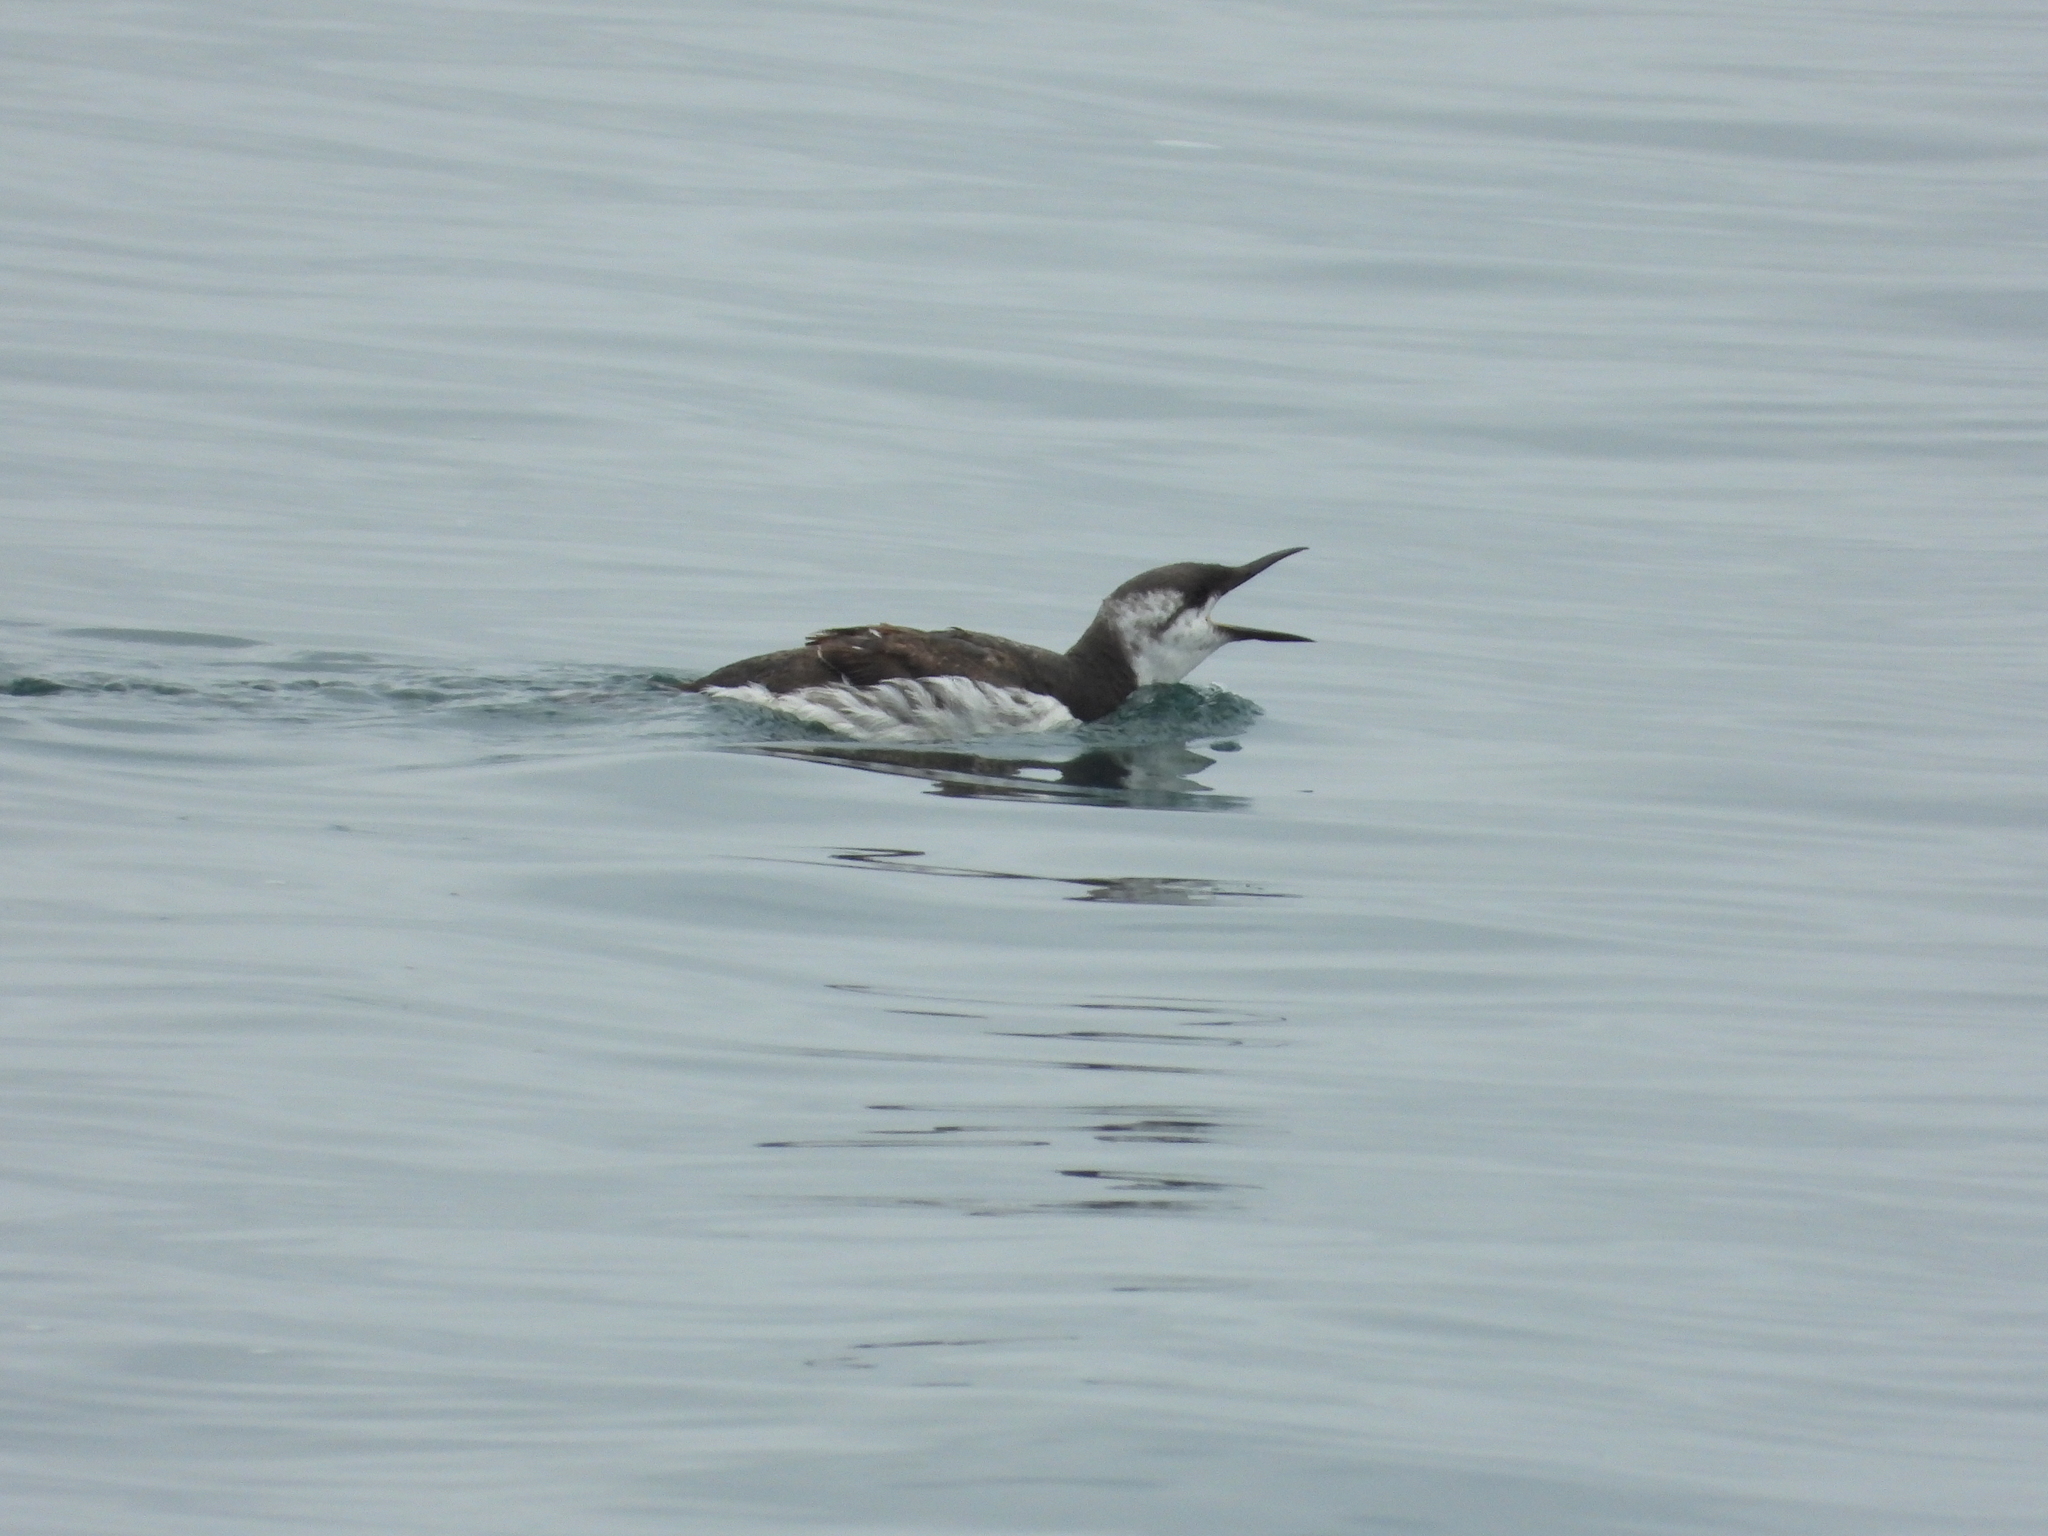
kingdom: Animalia
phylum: Chordata
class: Aves
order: Charadriiformes
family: Alcidae
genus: Uria
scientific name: Uria aalge
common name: Common murre
